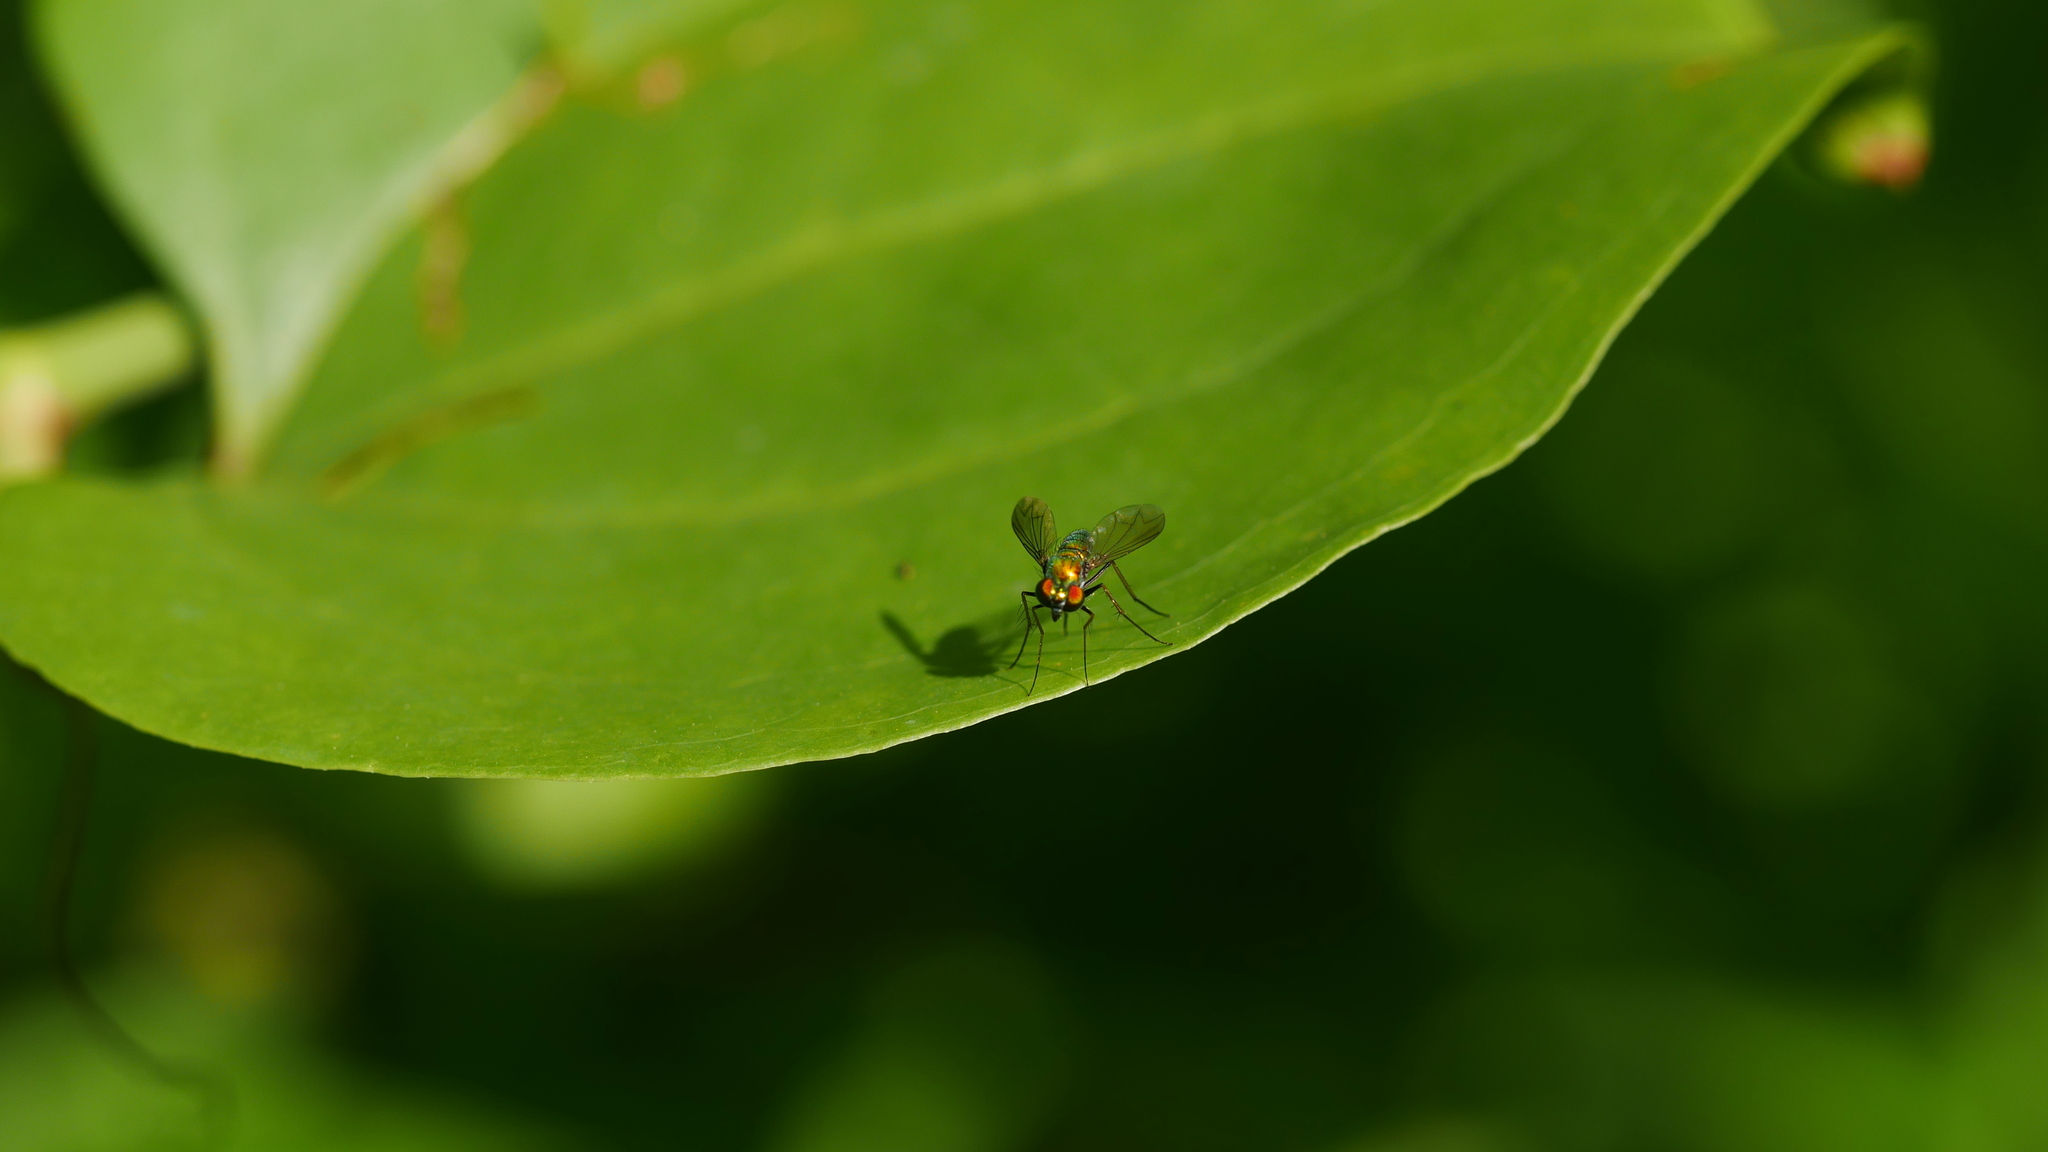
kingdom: Animalia
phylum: Arthropoda
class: Insecta
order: Diptera
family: Dolichopodidae
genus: Condylostylus
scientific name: Condylostylus
